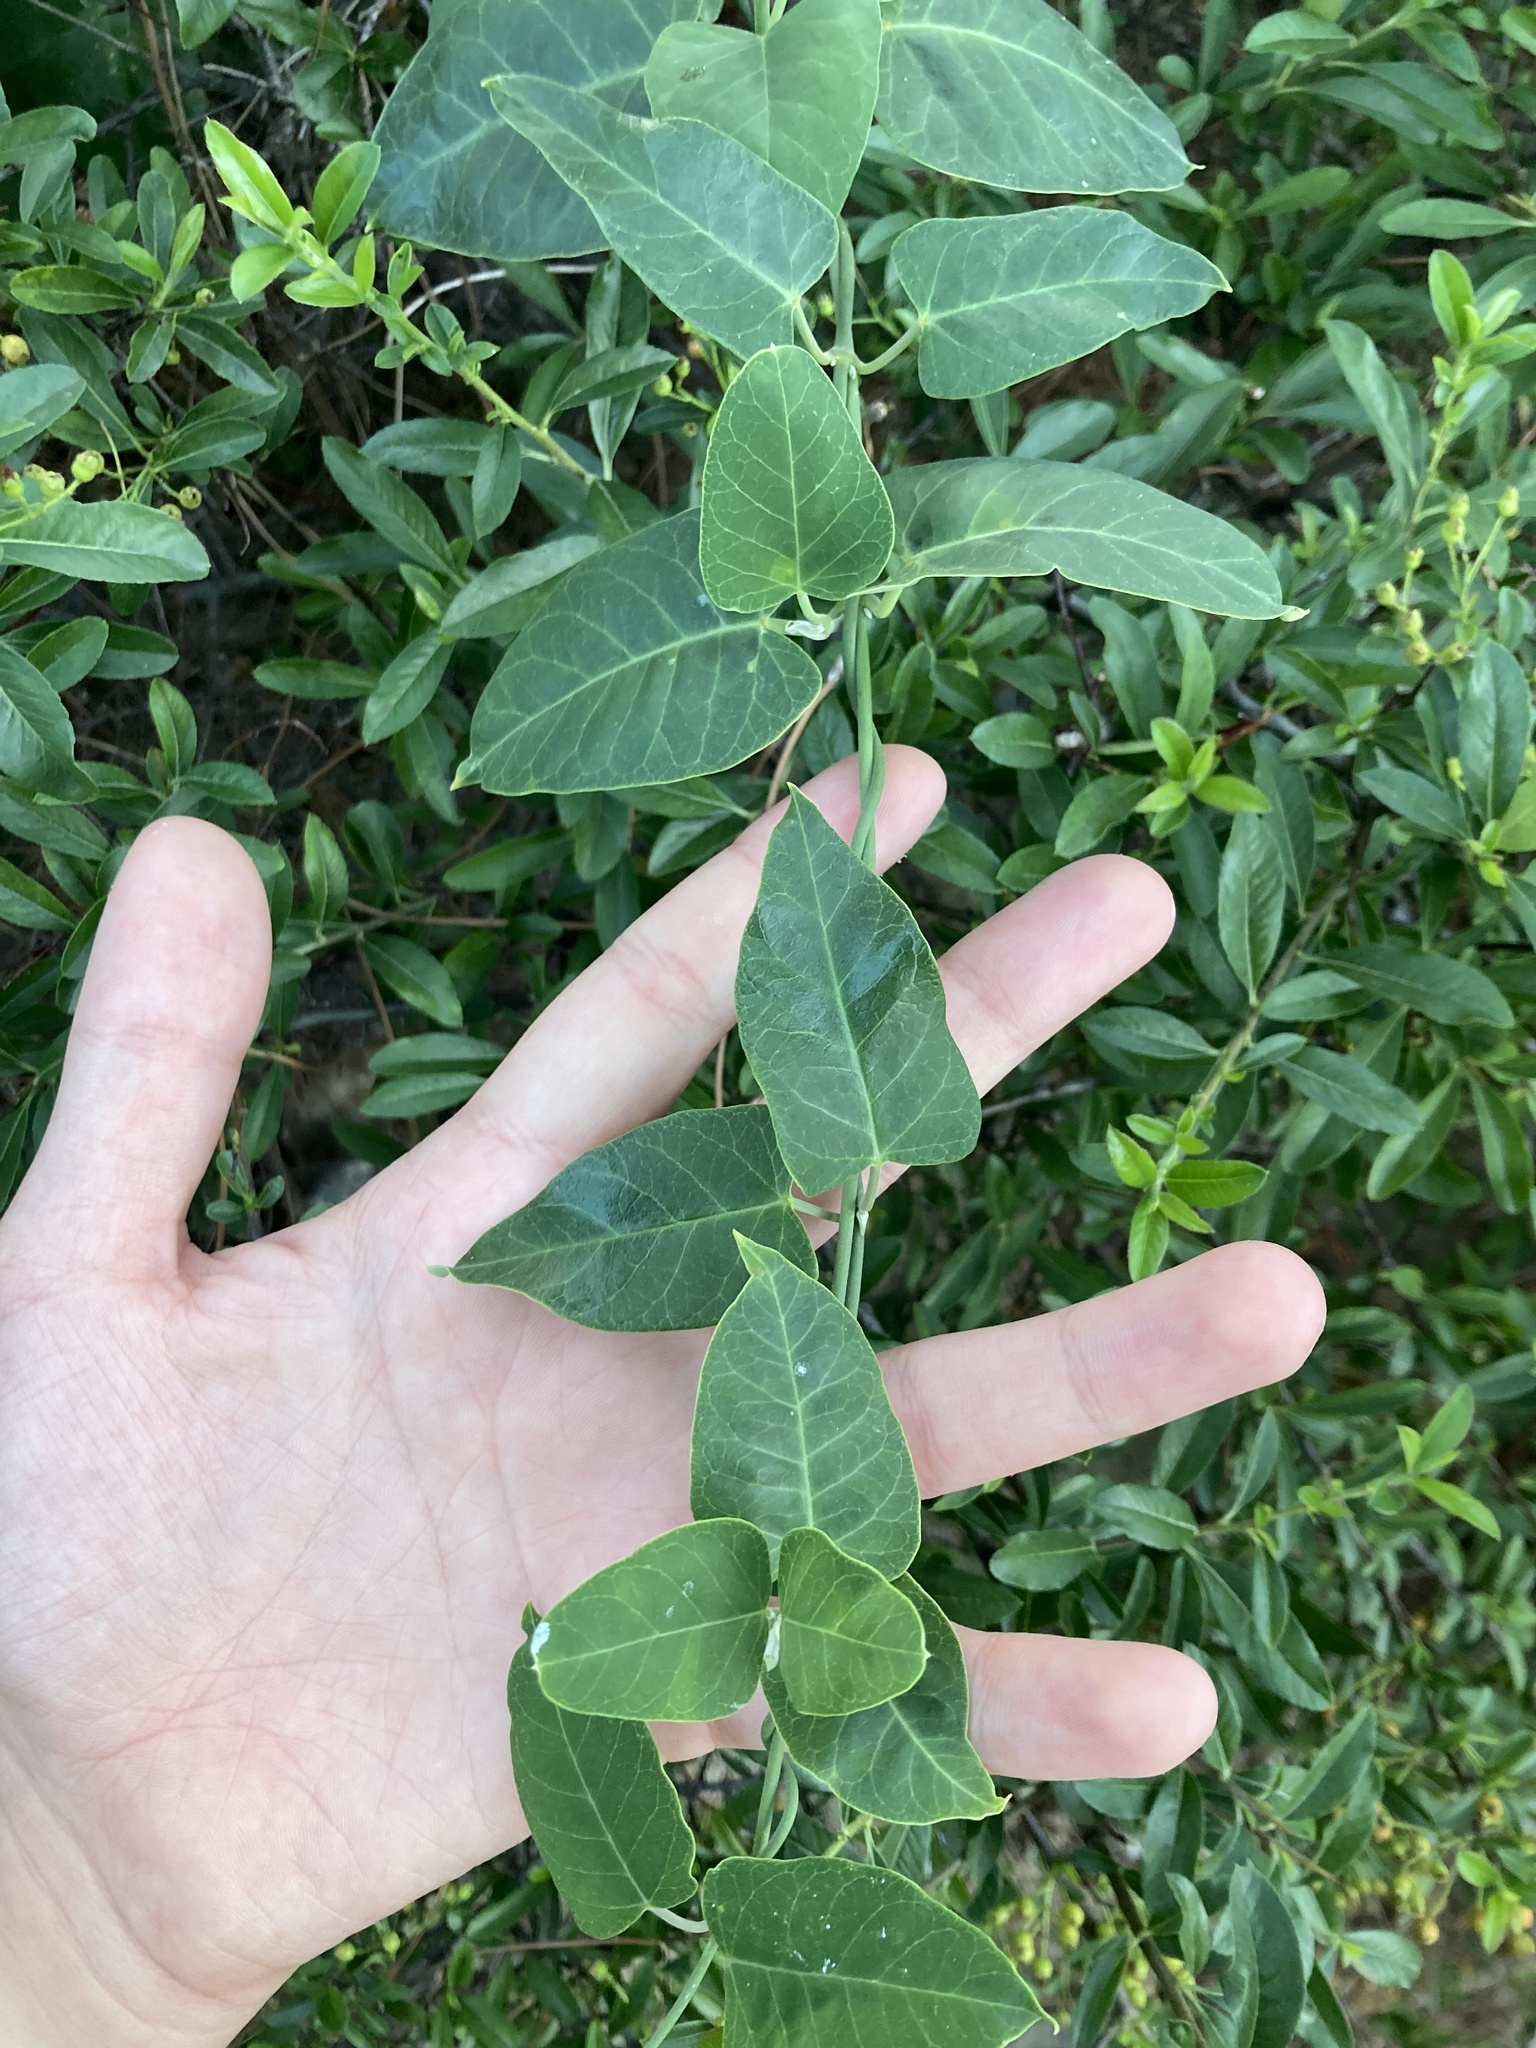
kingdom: Plantae
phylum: Tracheophyta
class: Magnoliopsida
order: Gentianales
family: Apocynaceae
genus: Araujia
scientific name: Araujia sericifera
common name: White bladderflower
